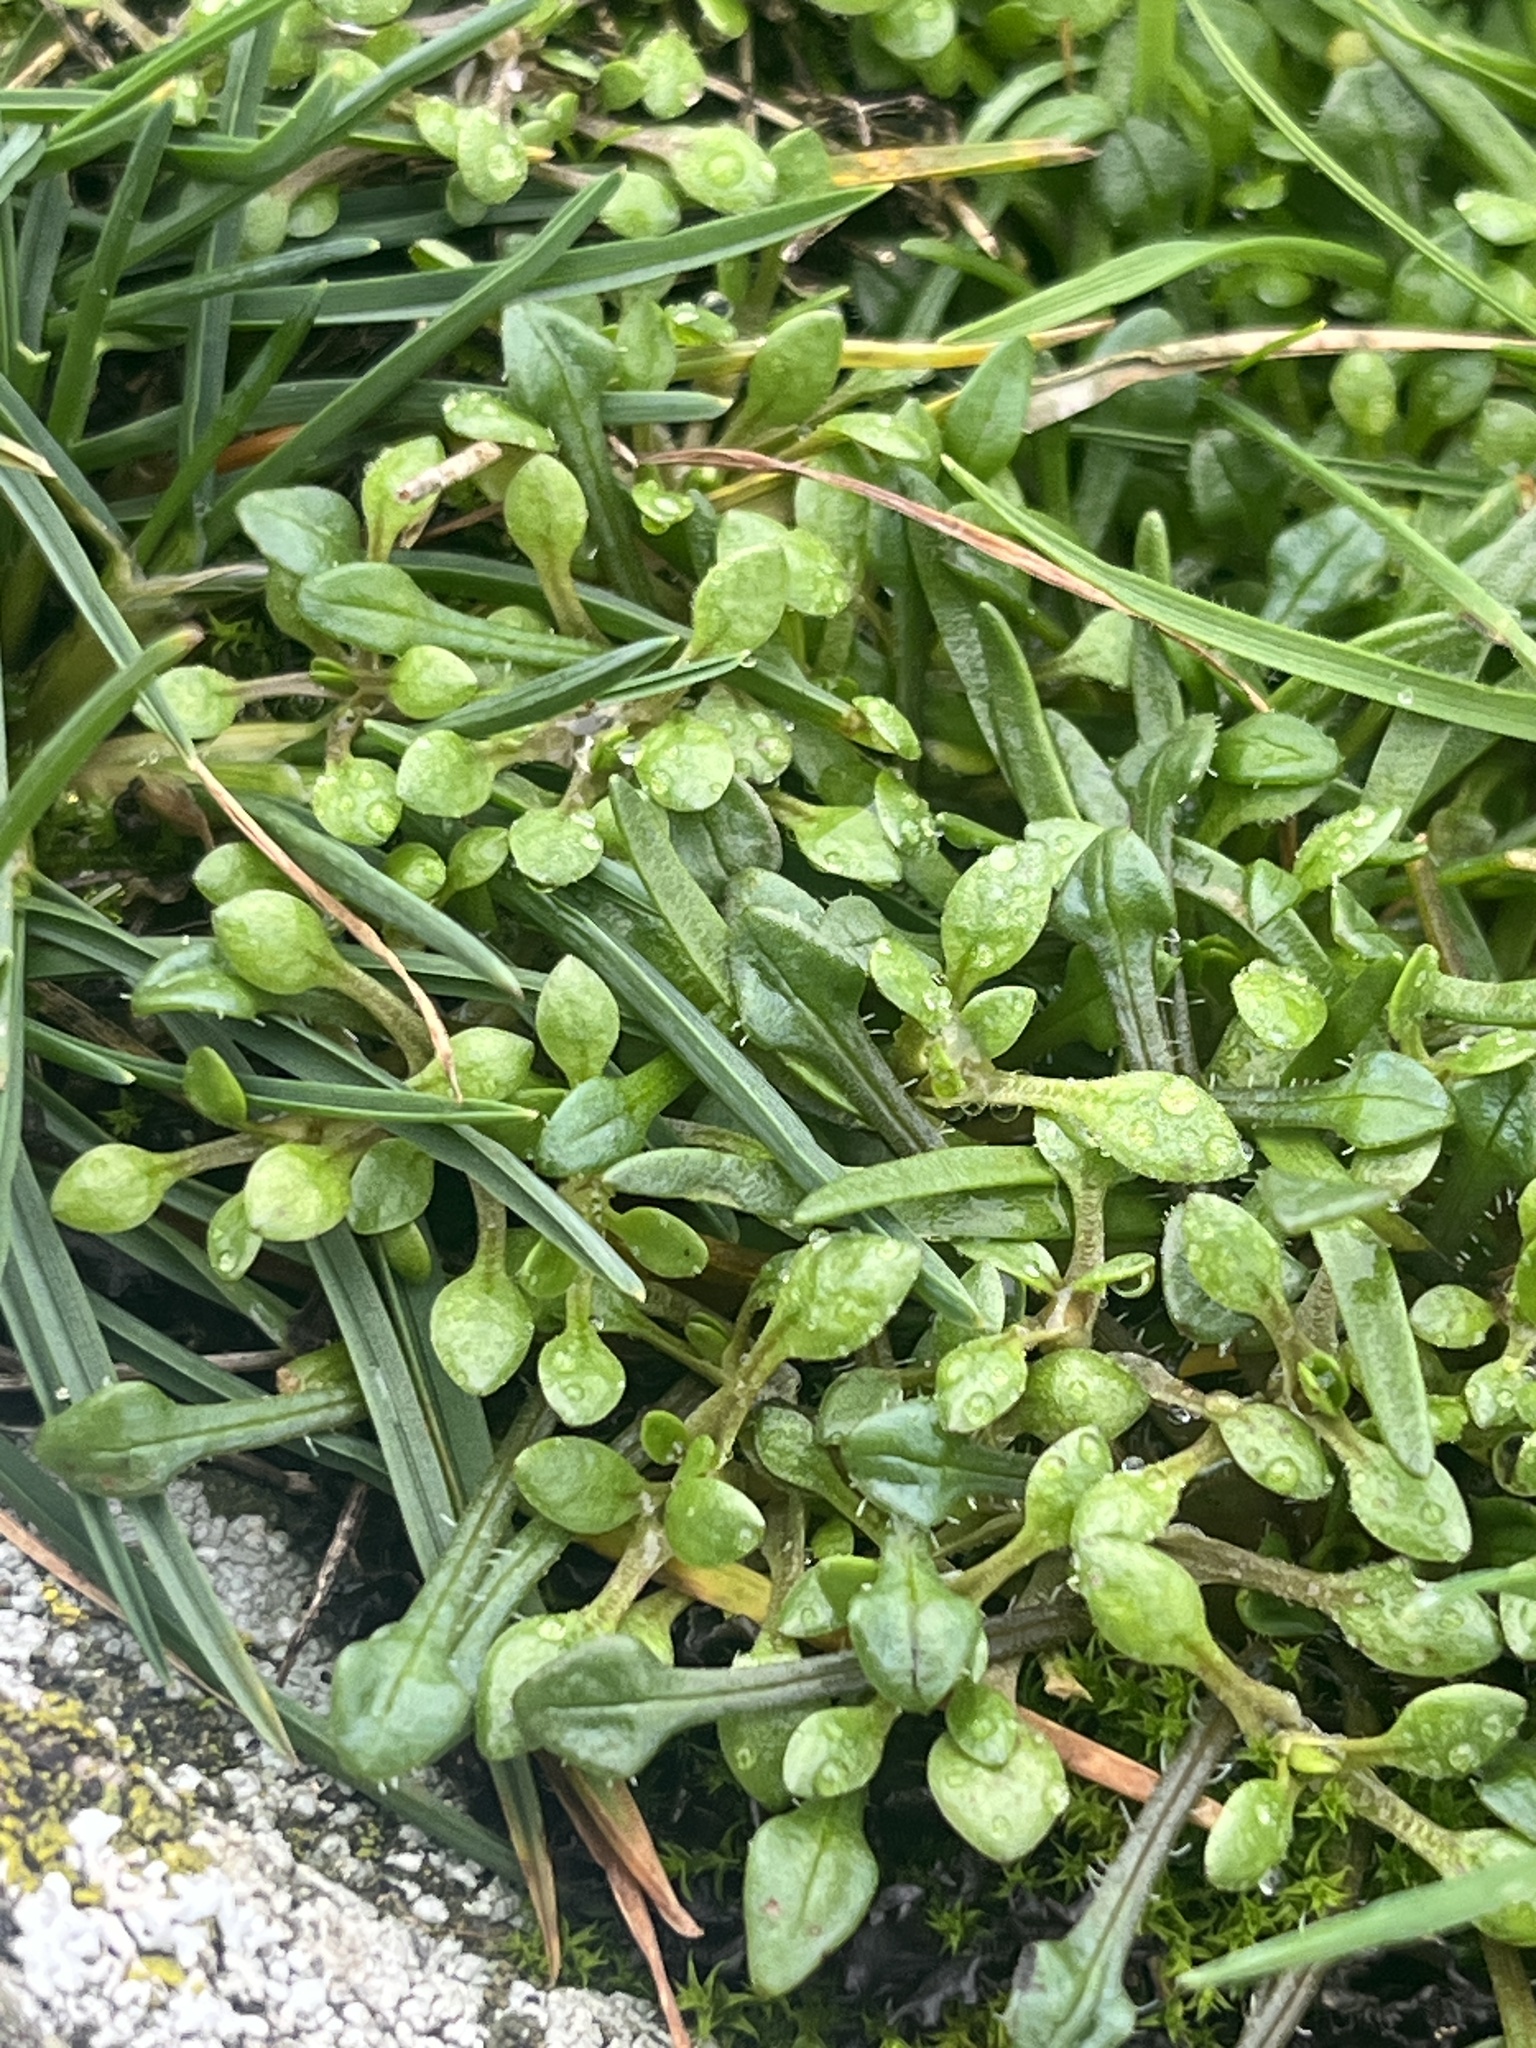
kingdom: Plantae
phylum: Tracheophyta
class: Magnoliopsida
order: Caryophyllales
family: Montiaceae
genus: Montia
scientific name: Montia fontana
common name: Blinks
